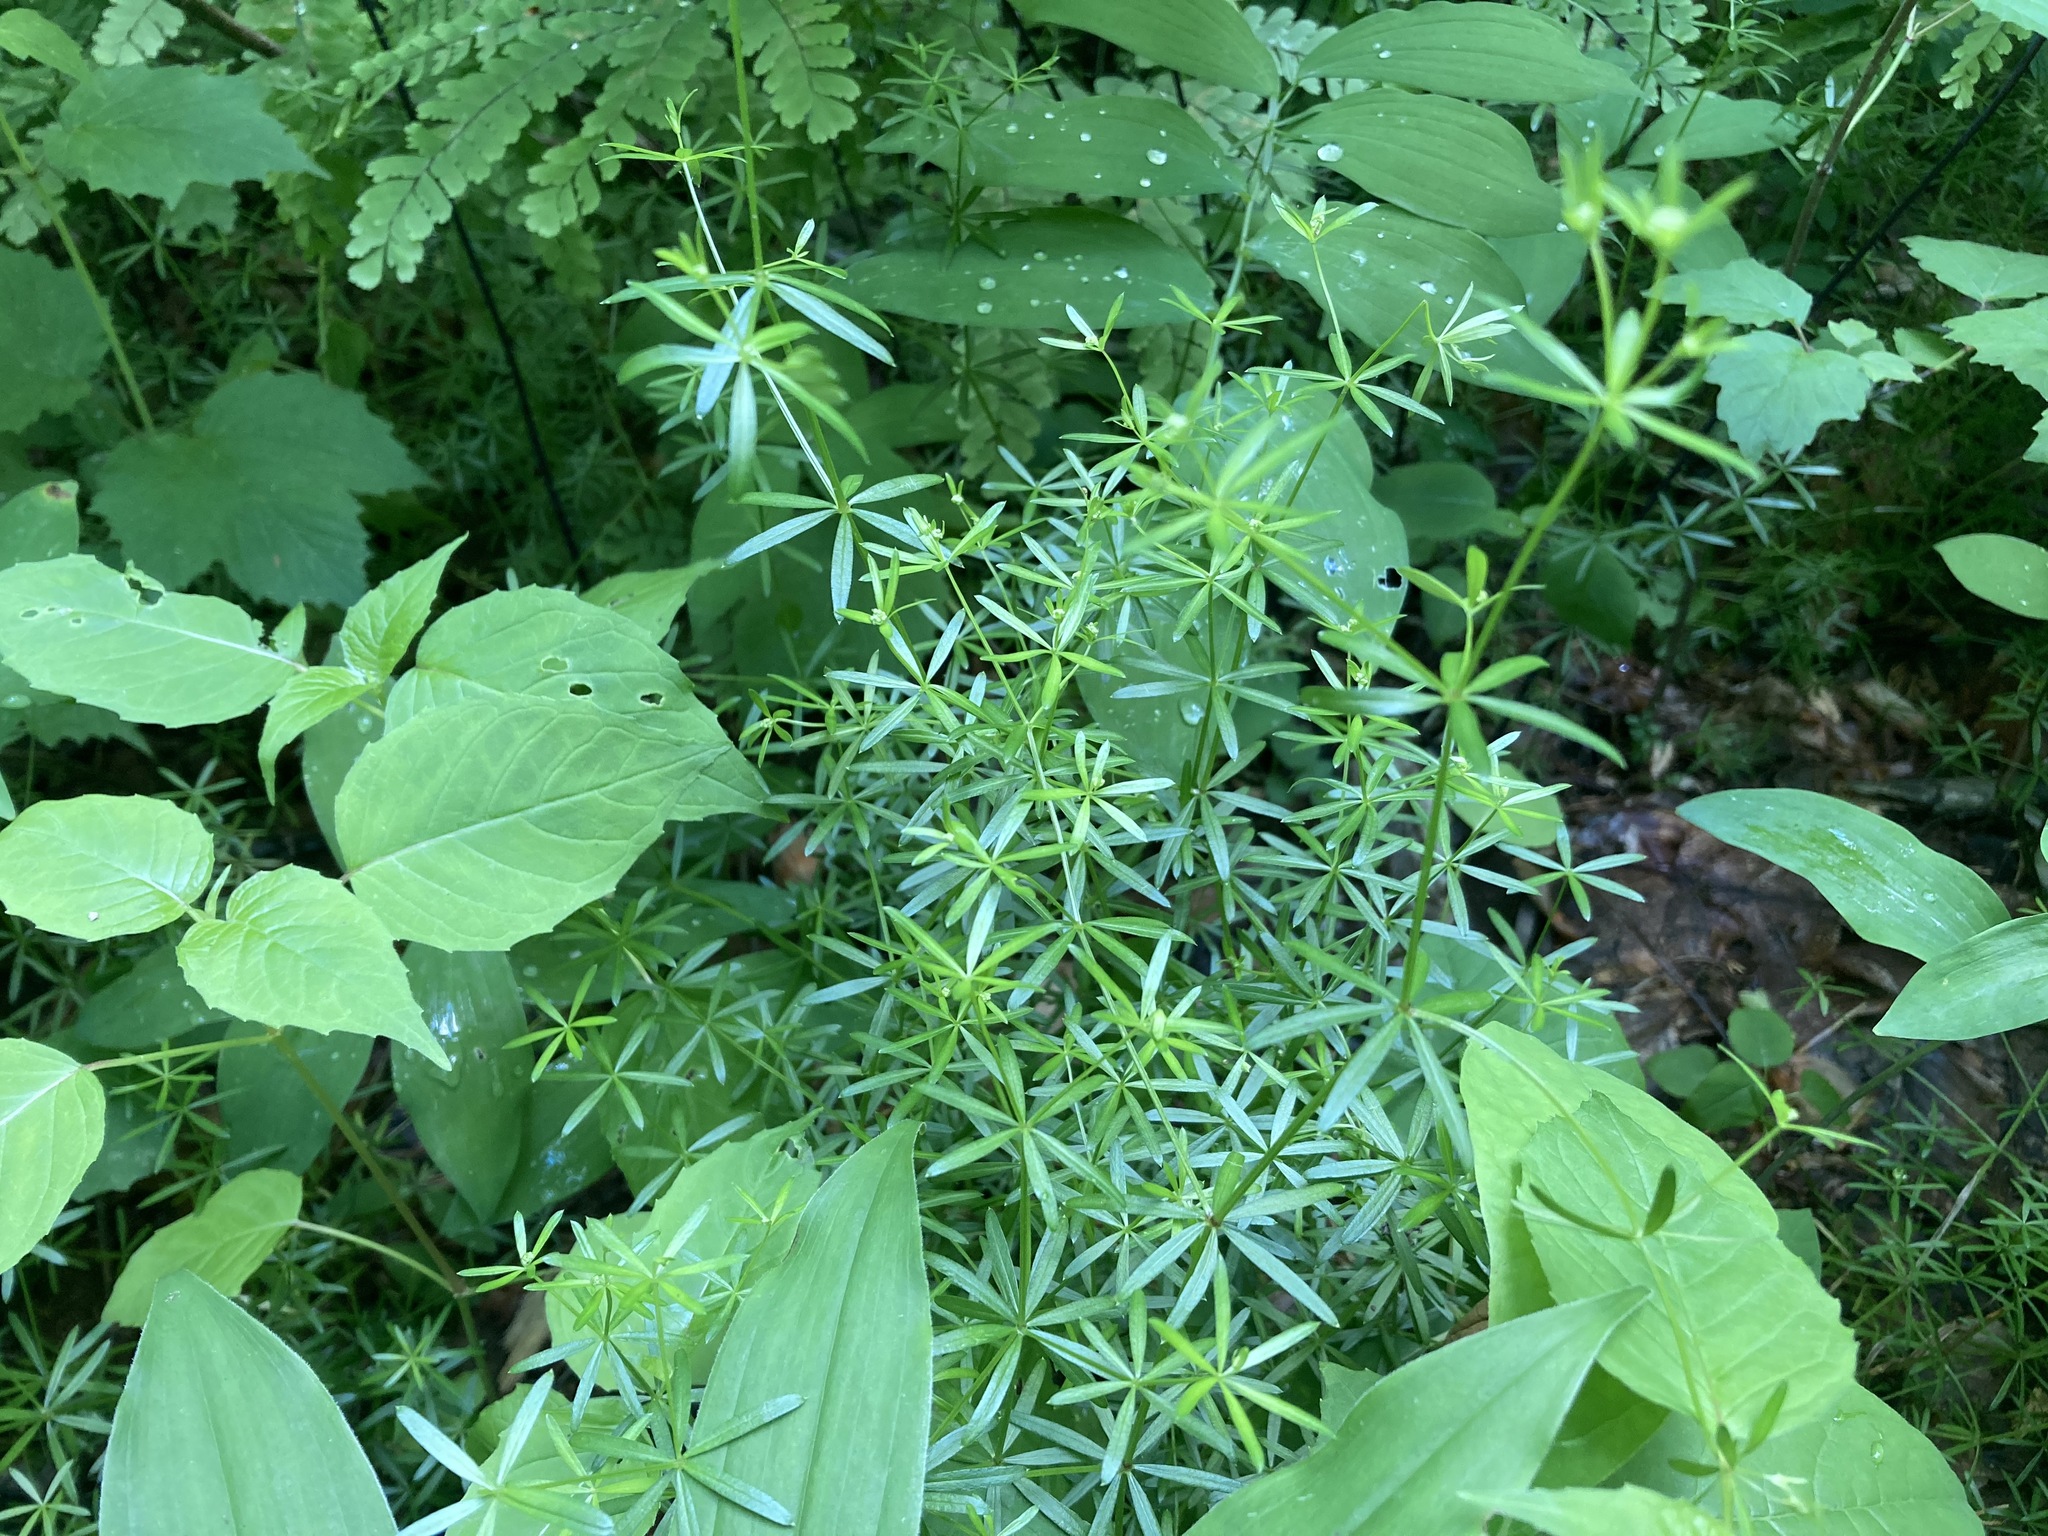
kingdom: Plantae
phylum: Tracheophyta
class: Magnoliopsida
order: Gentianales
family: Rubiaceae
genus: Galium
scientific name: Galium concinnum
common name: Shining bedstraw
